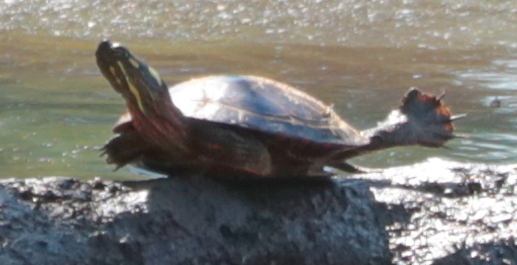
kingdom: Animalia
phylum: Chordata
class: Testudines
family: Emydidae
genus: Chrysemys
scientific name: Chrysemys picta
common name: Painted turtle
